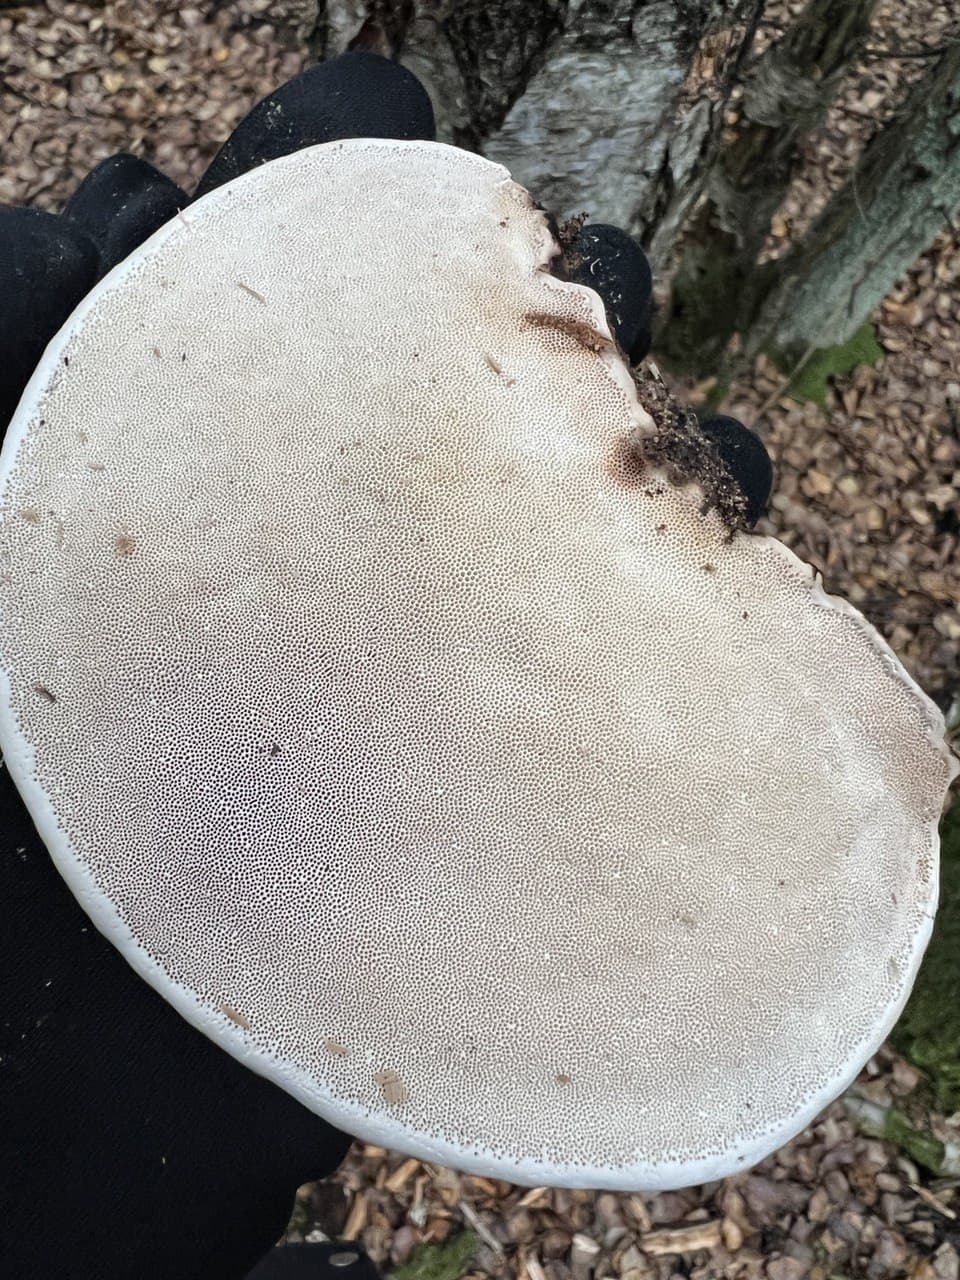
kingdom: Fungi
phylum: Basidiomycota
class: Agaricomycetes
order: Polyporales
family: Fomitopsidaceae
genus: Fomitopsis
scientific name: Fomitopsis pinicola
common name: Red-belted bracket
